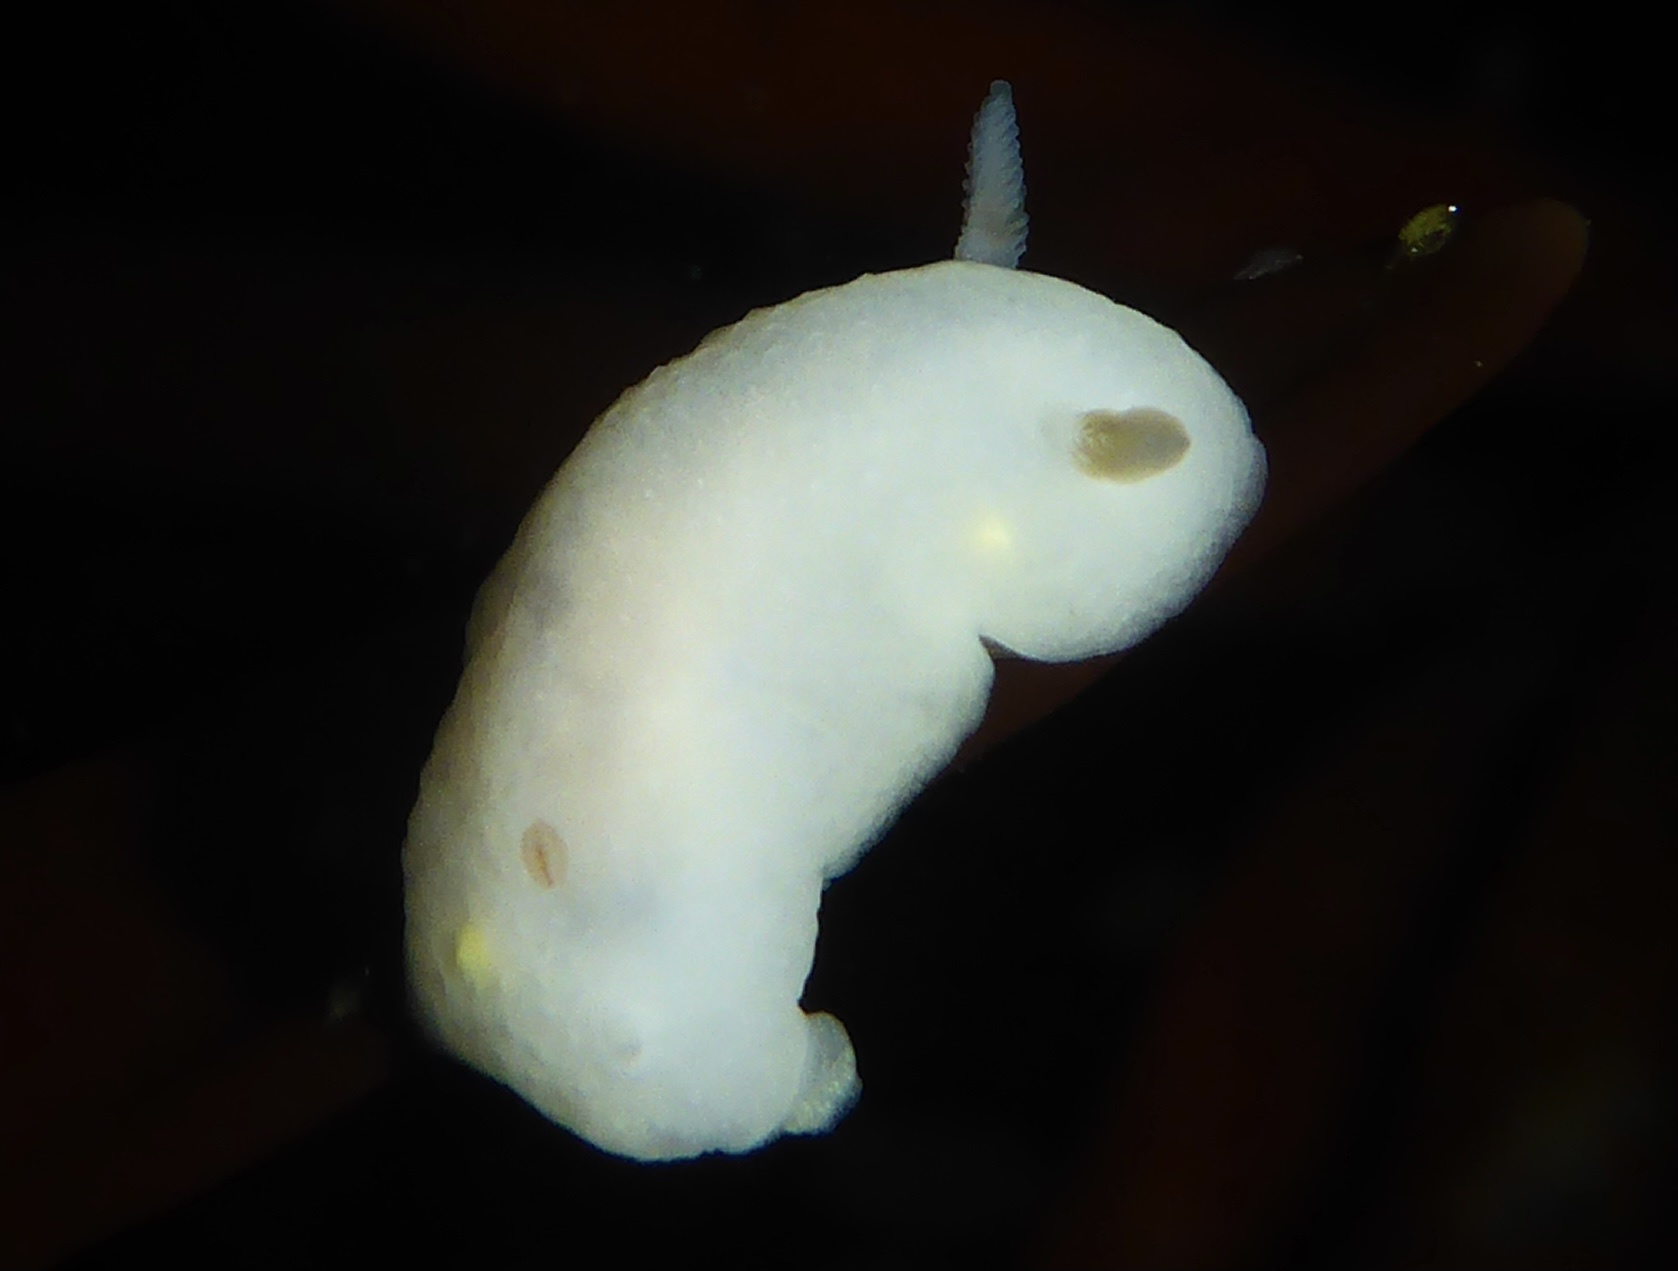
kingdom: Animalia
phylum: Mollusca
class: Gastropoda
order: Nudibranchia
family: Cadlinidae
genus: Cadlina
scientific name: Cadlina modesta
